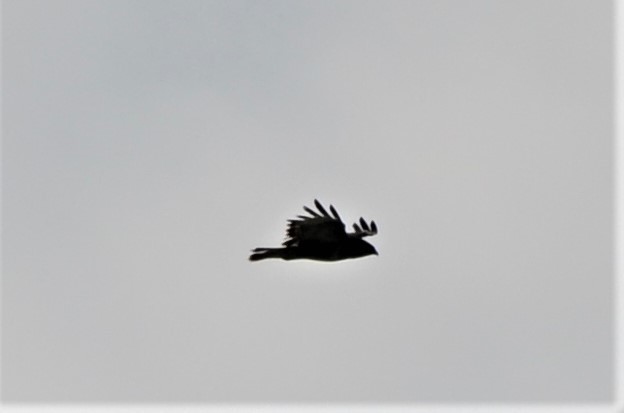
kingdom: Animalia
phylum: Chordata
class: Aves
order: Accipitriformes
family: Accipitridae
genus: Buteo
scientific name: Buteo buteo
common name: Common buzzard
